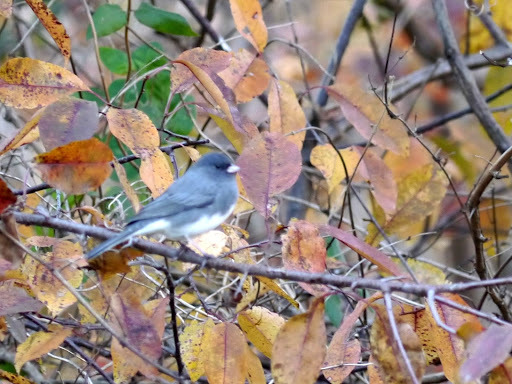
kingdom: Animalia
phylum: Chordata
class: Aves
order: Passeriformes
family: Passerellidae
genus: Junco
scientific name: Junco hyemalis
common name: Dark-eyed junco
